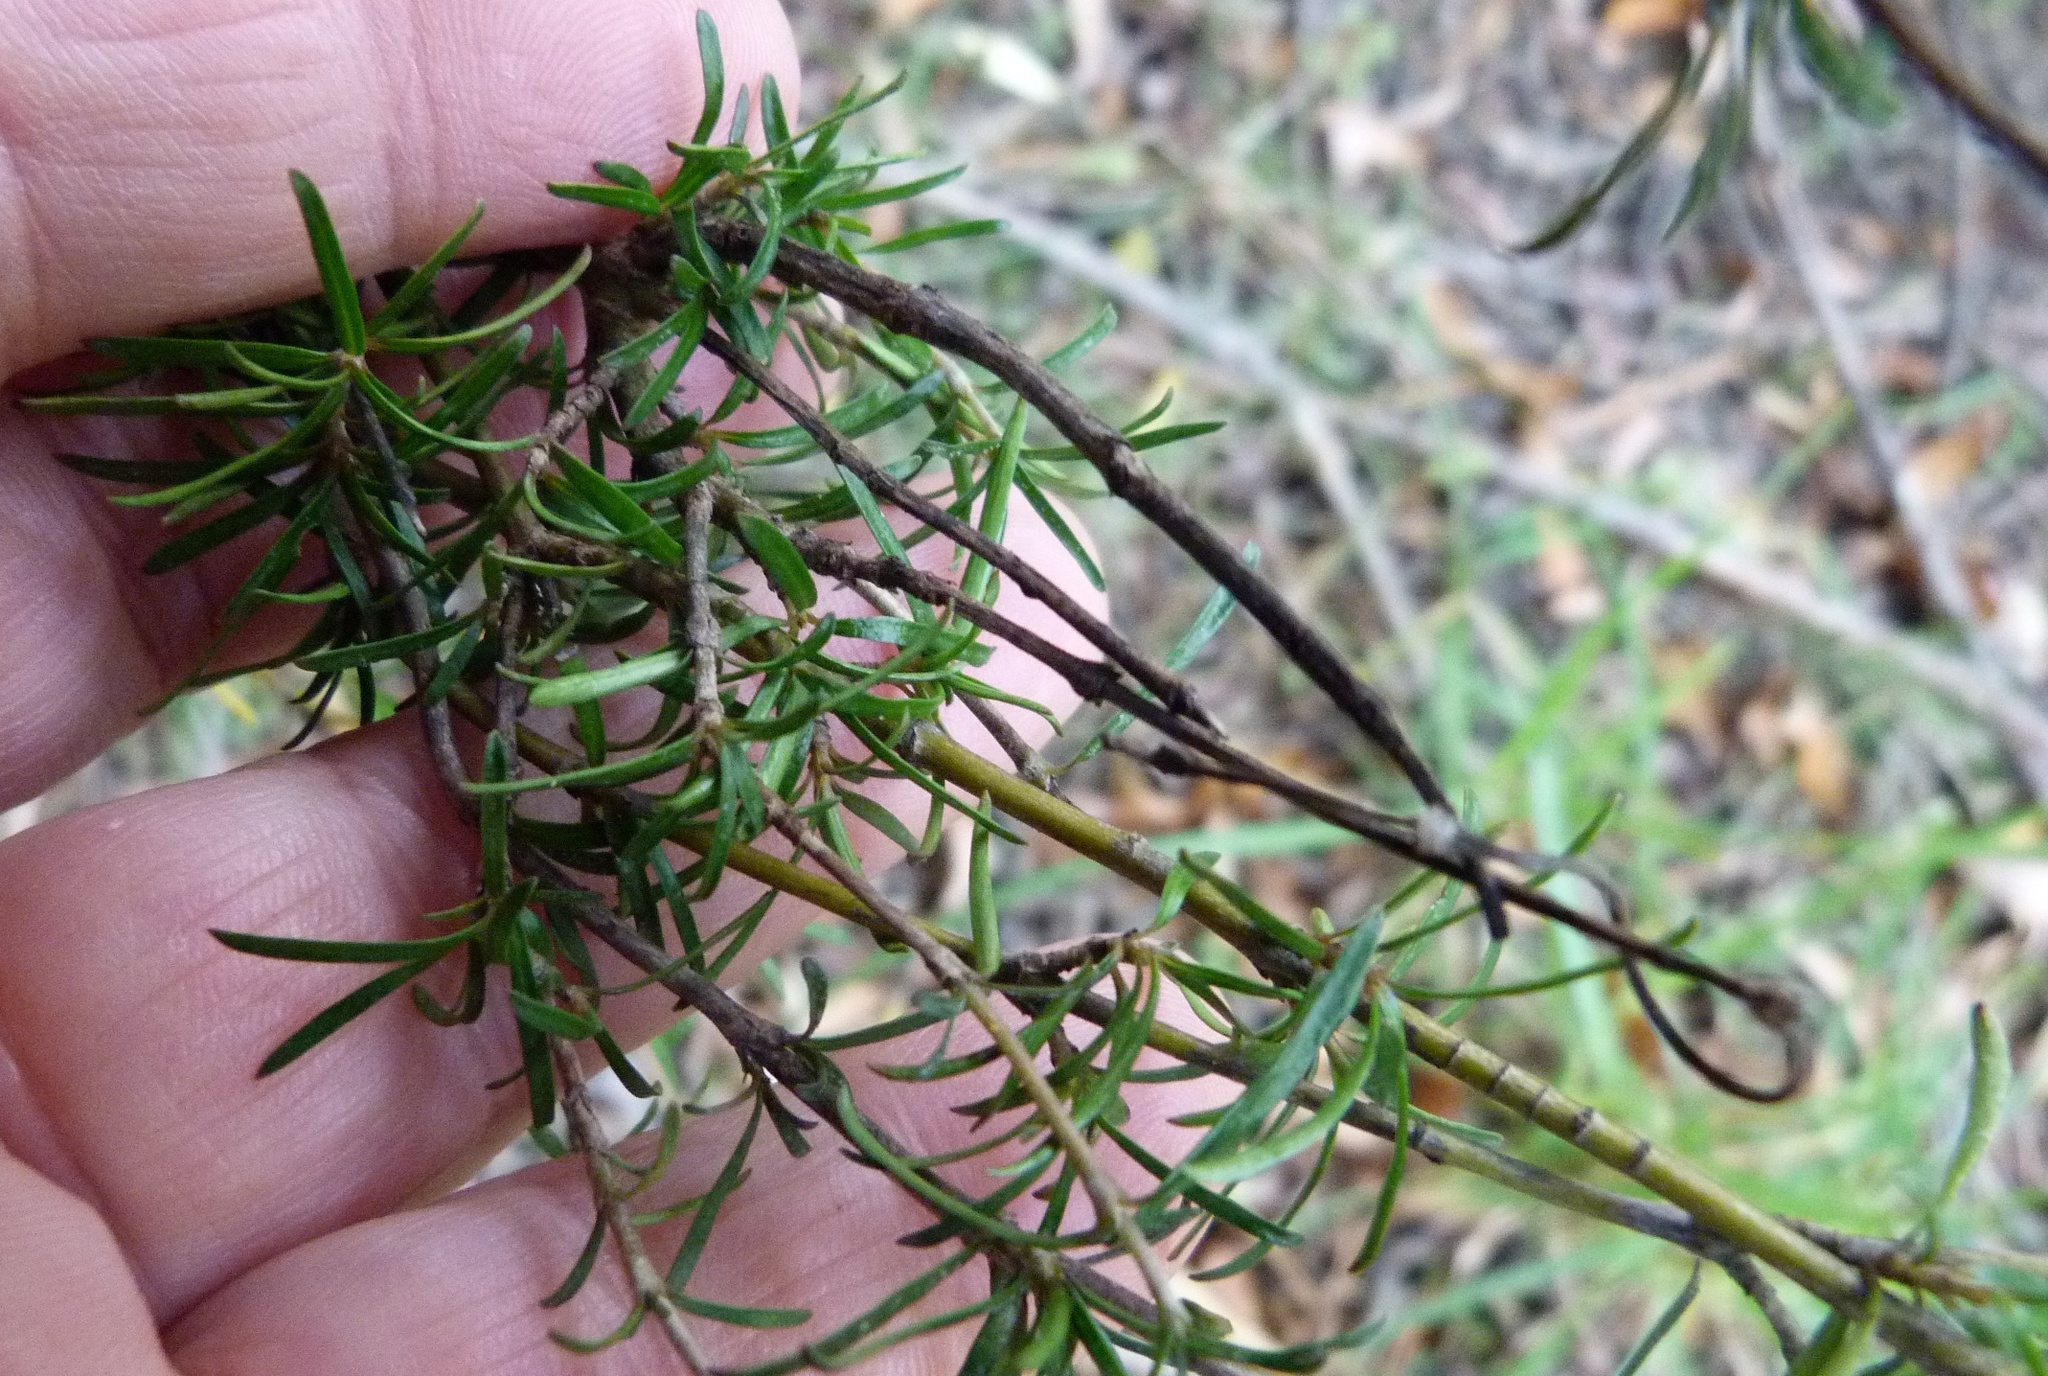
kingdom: Plantae
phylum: Tracheophyta
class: Magnoliopsida
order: Gentianales
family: Rubiaceae
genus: Coprosma
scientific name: Coprosma rugosa
